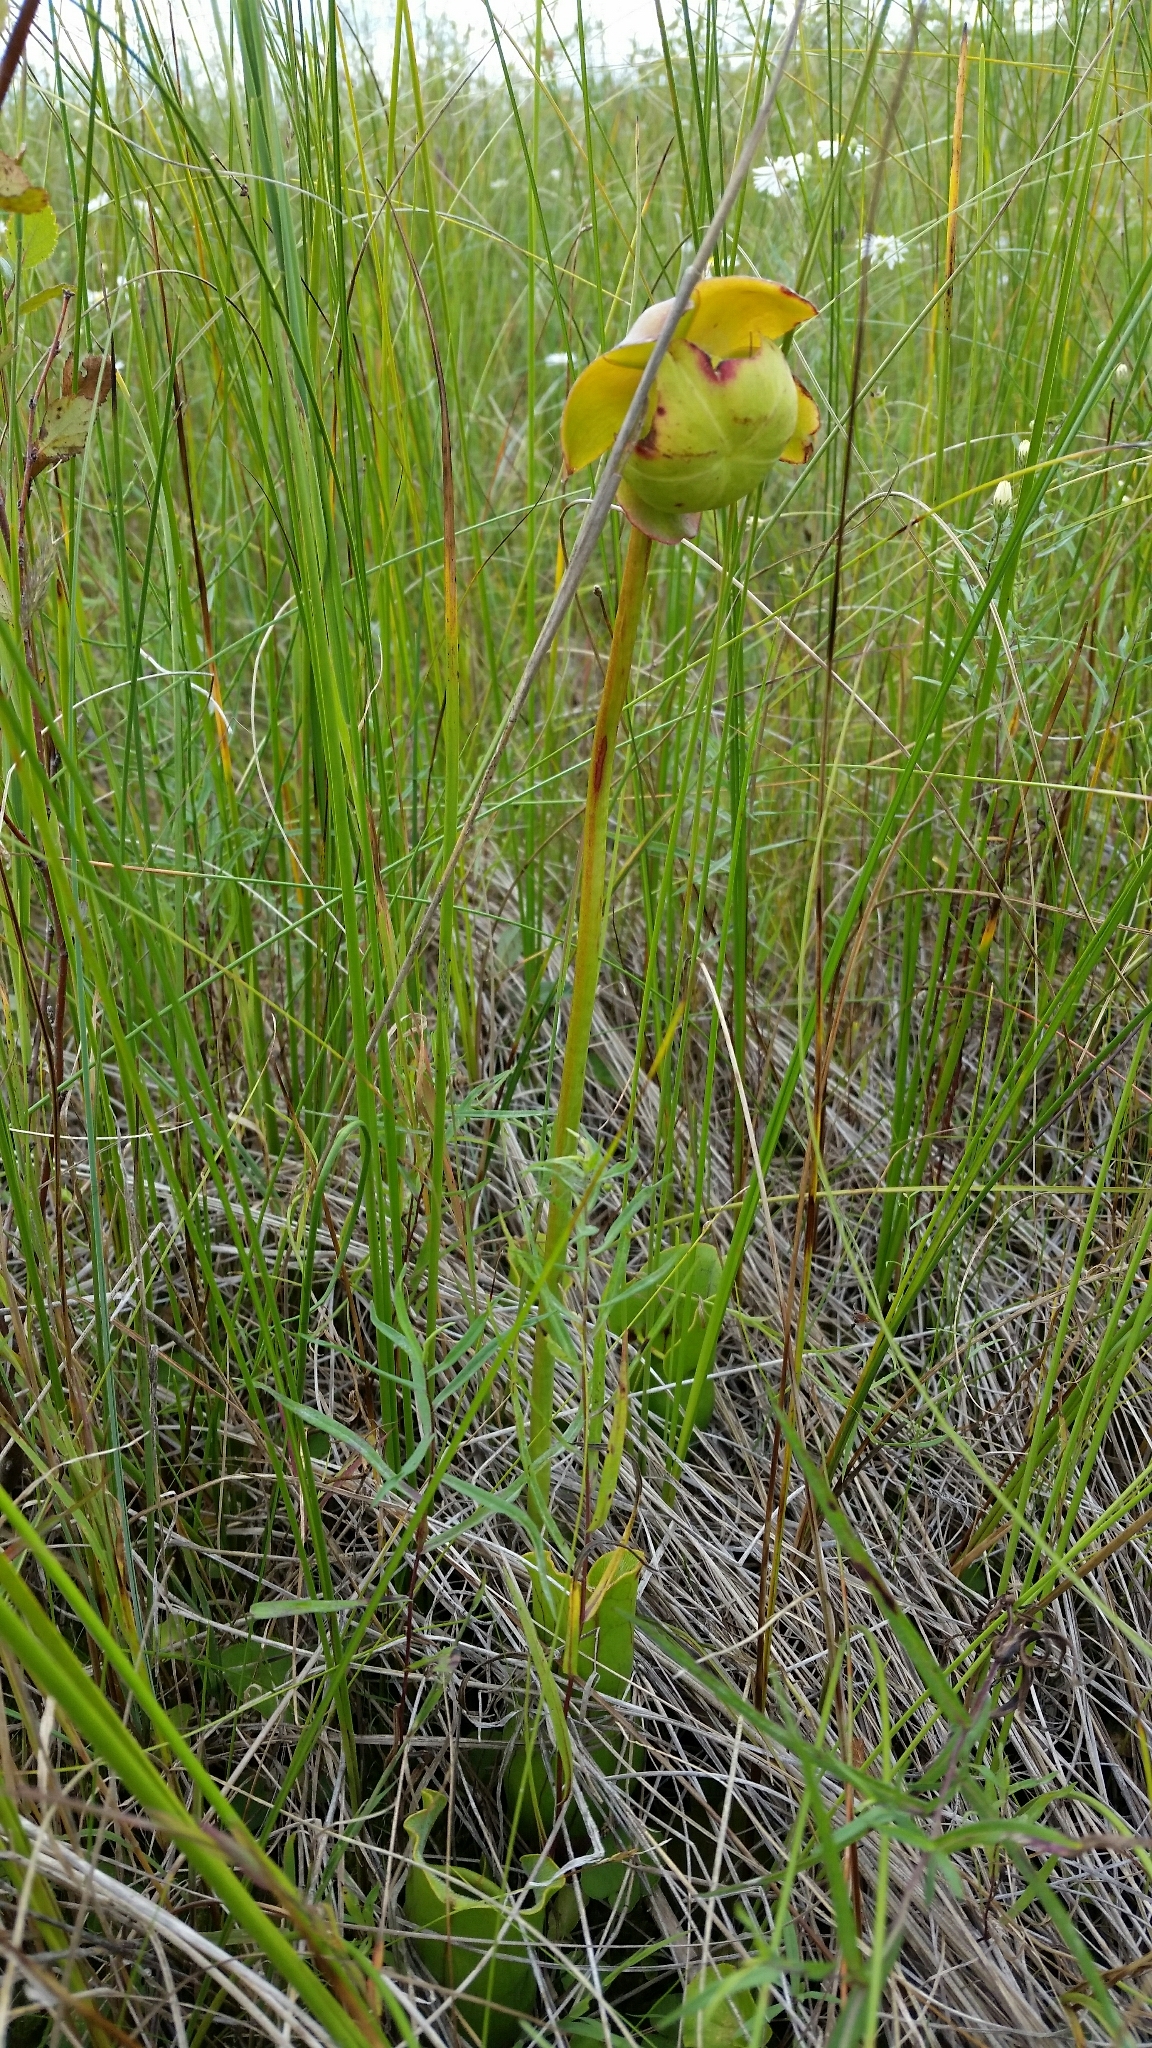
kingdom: Plantae
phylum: Tracheophyta
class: Magnoliopsida
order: Ericales
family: Sarraceniaceae
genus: Sarracenia
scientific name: Sarracenia purpurea
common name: Pitcherplant
